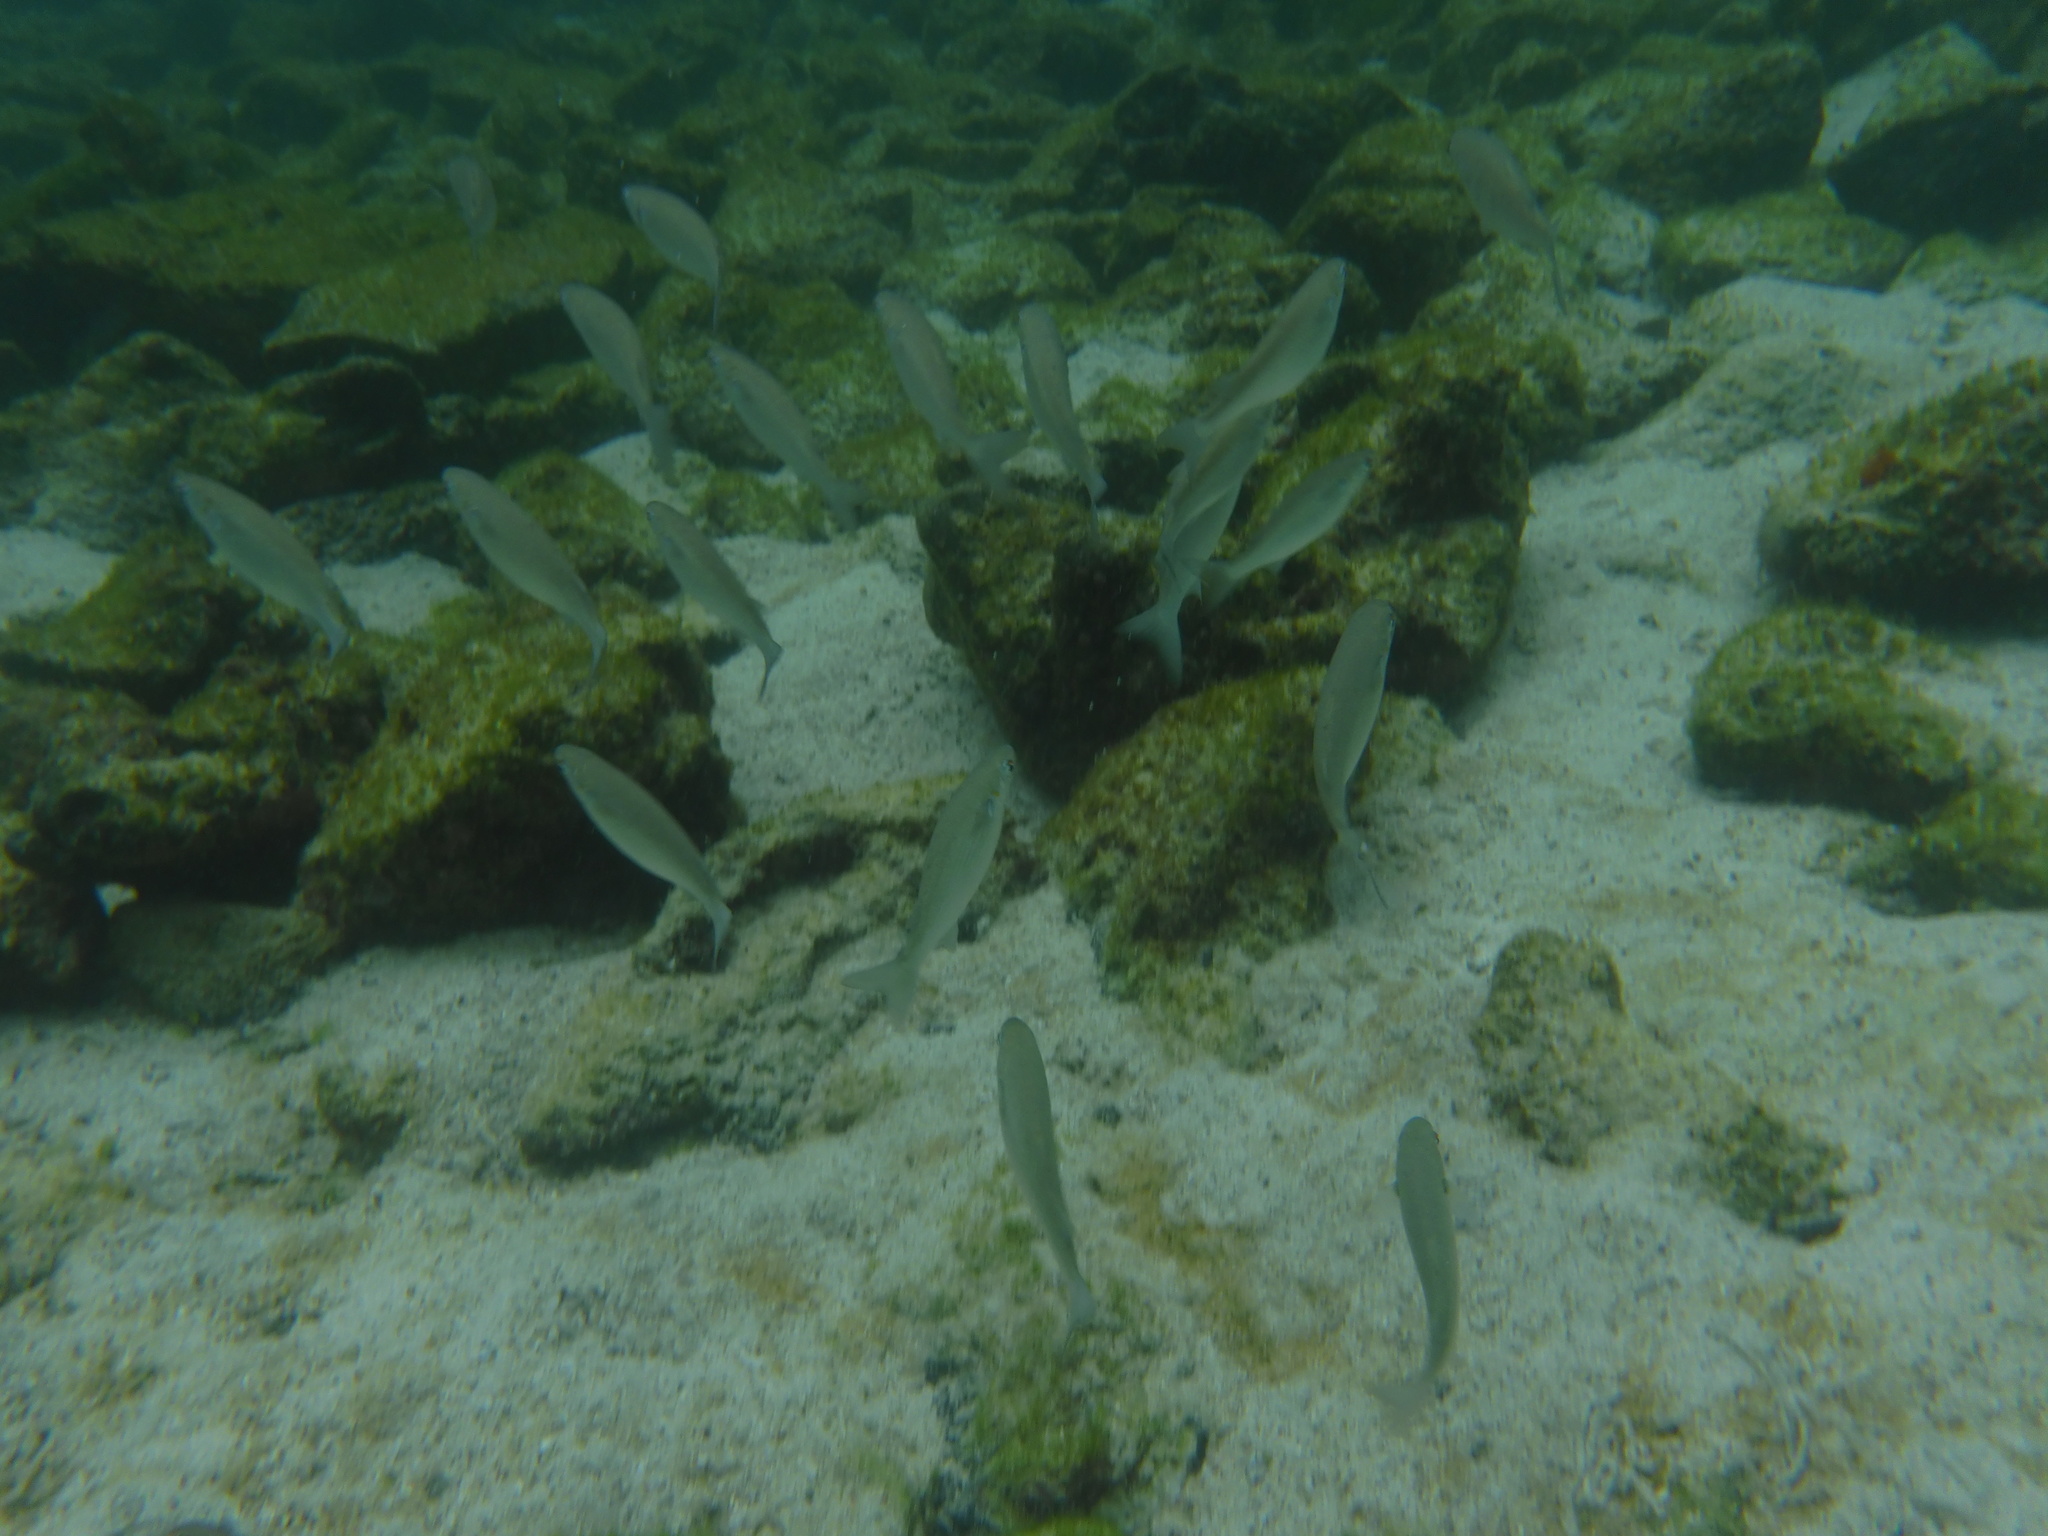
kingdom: Animalia
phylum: Chordata
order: Mugiliformes
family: Mugilidae
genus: Mugil
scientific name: Mugil curema
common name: White mullet
